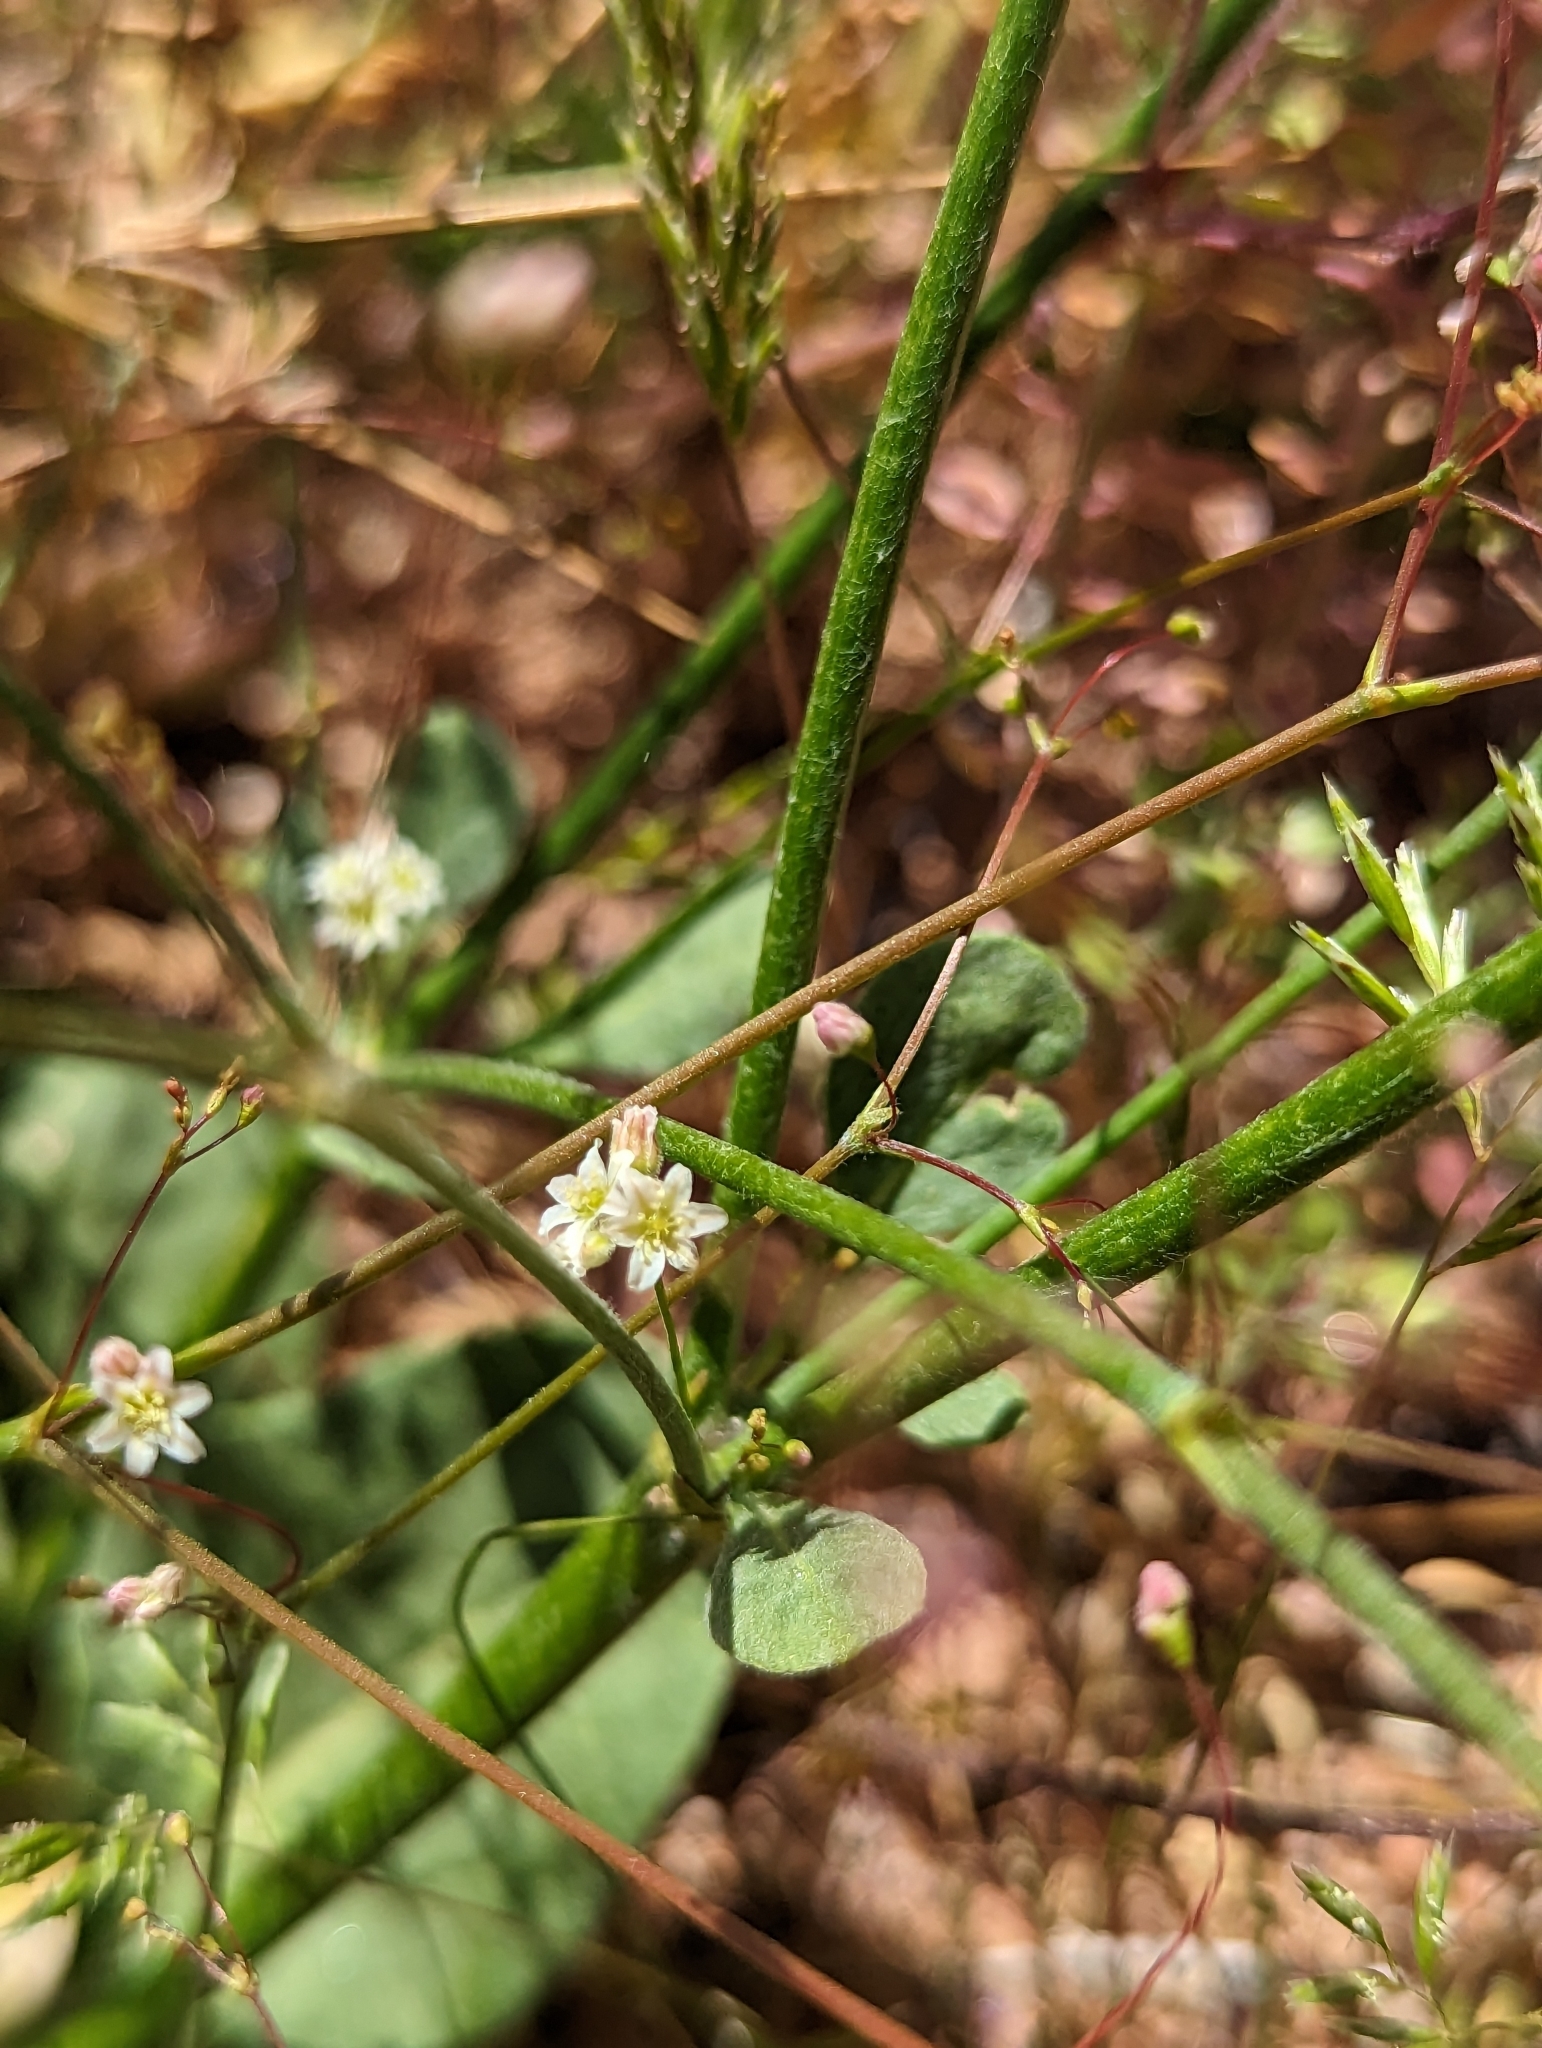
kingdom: Plantae
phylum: Tracheophyta
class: Magnoliopsida
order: Caryophyllales
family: Polygonaceae
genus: Eriogonum
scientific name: Eriogonum ordii
